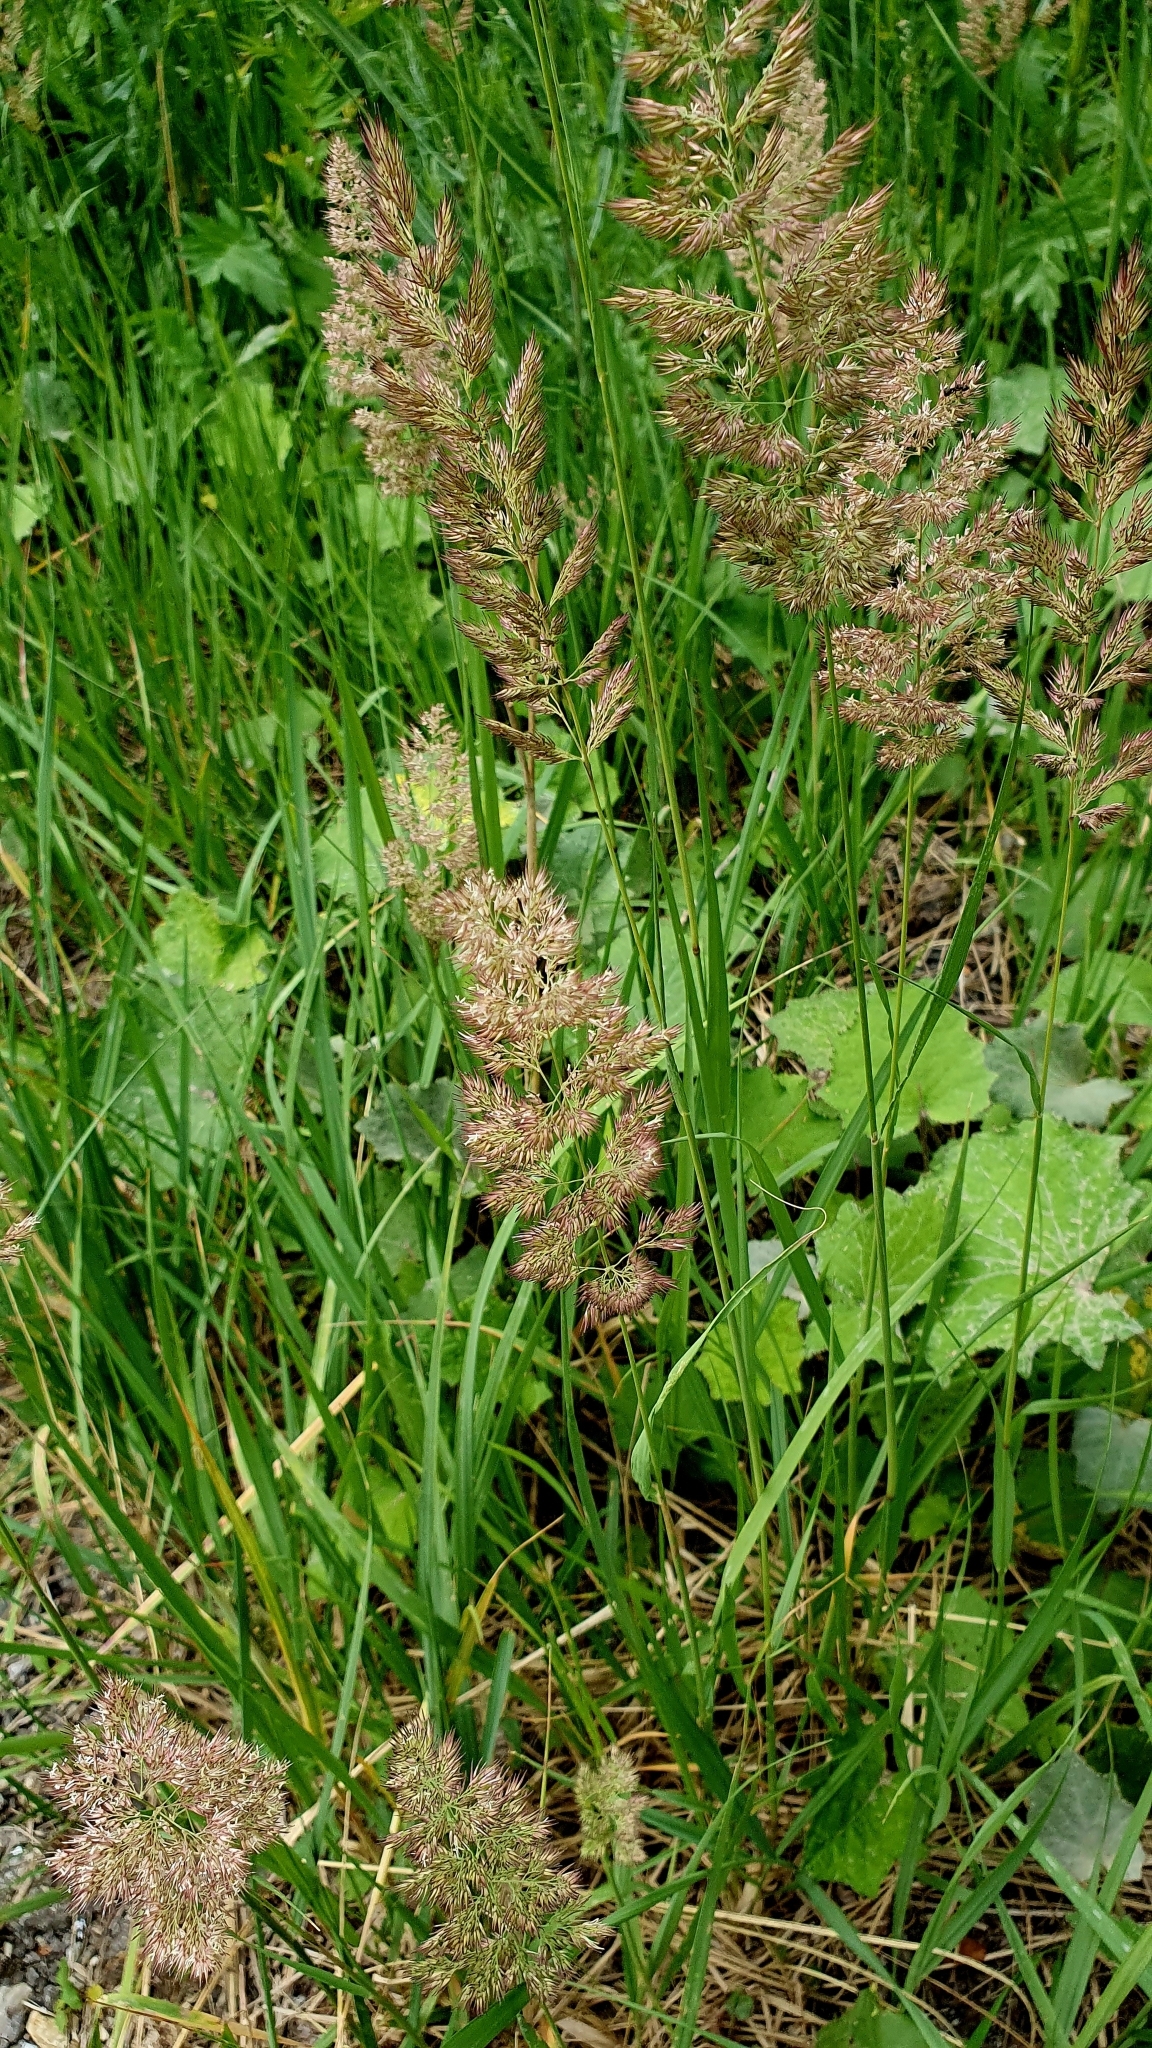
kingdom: Plantae
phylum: Tracheophyta
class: Liliopsida
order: Poales
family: Poaceae
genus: Calamagrostis
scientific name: Calamagrostis epigejos
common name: Wood small-reed
